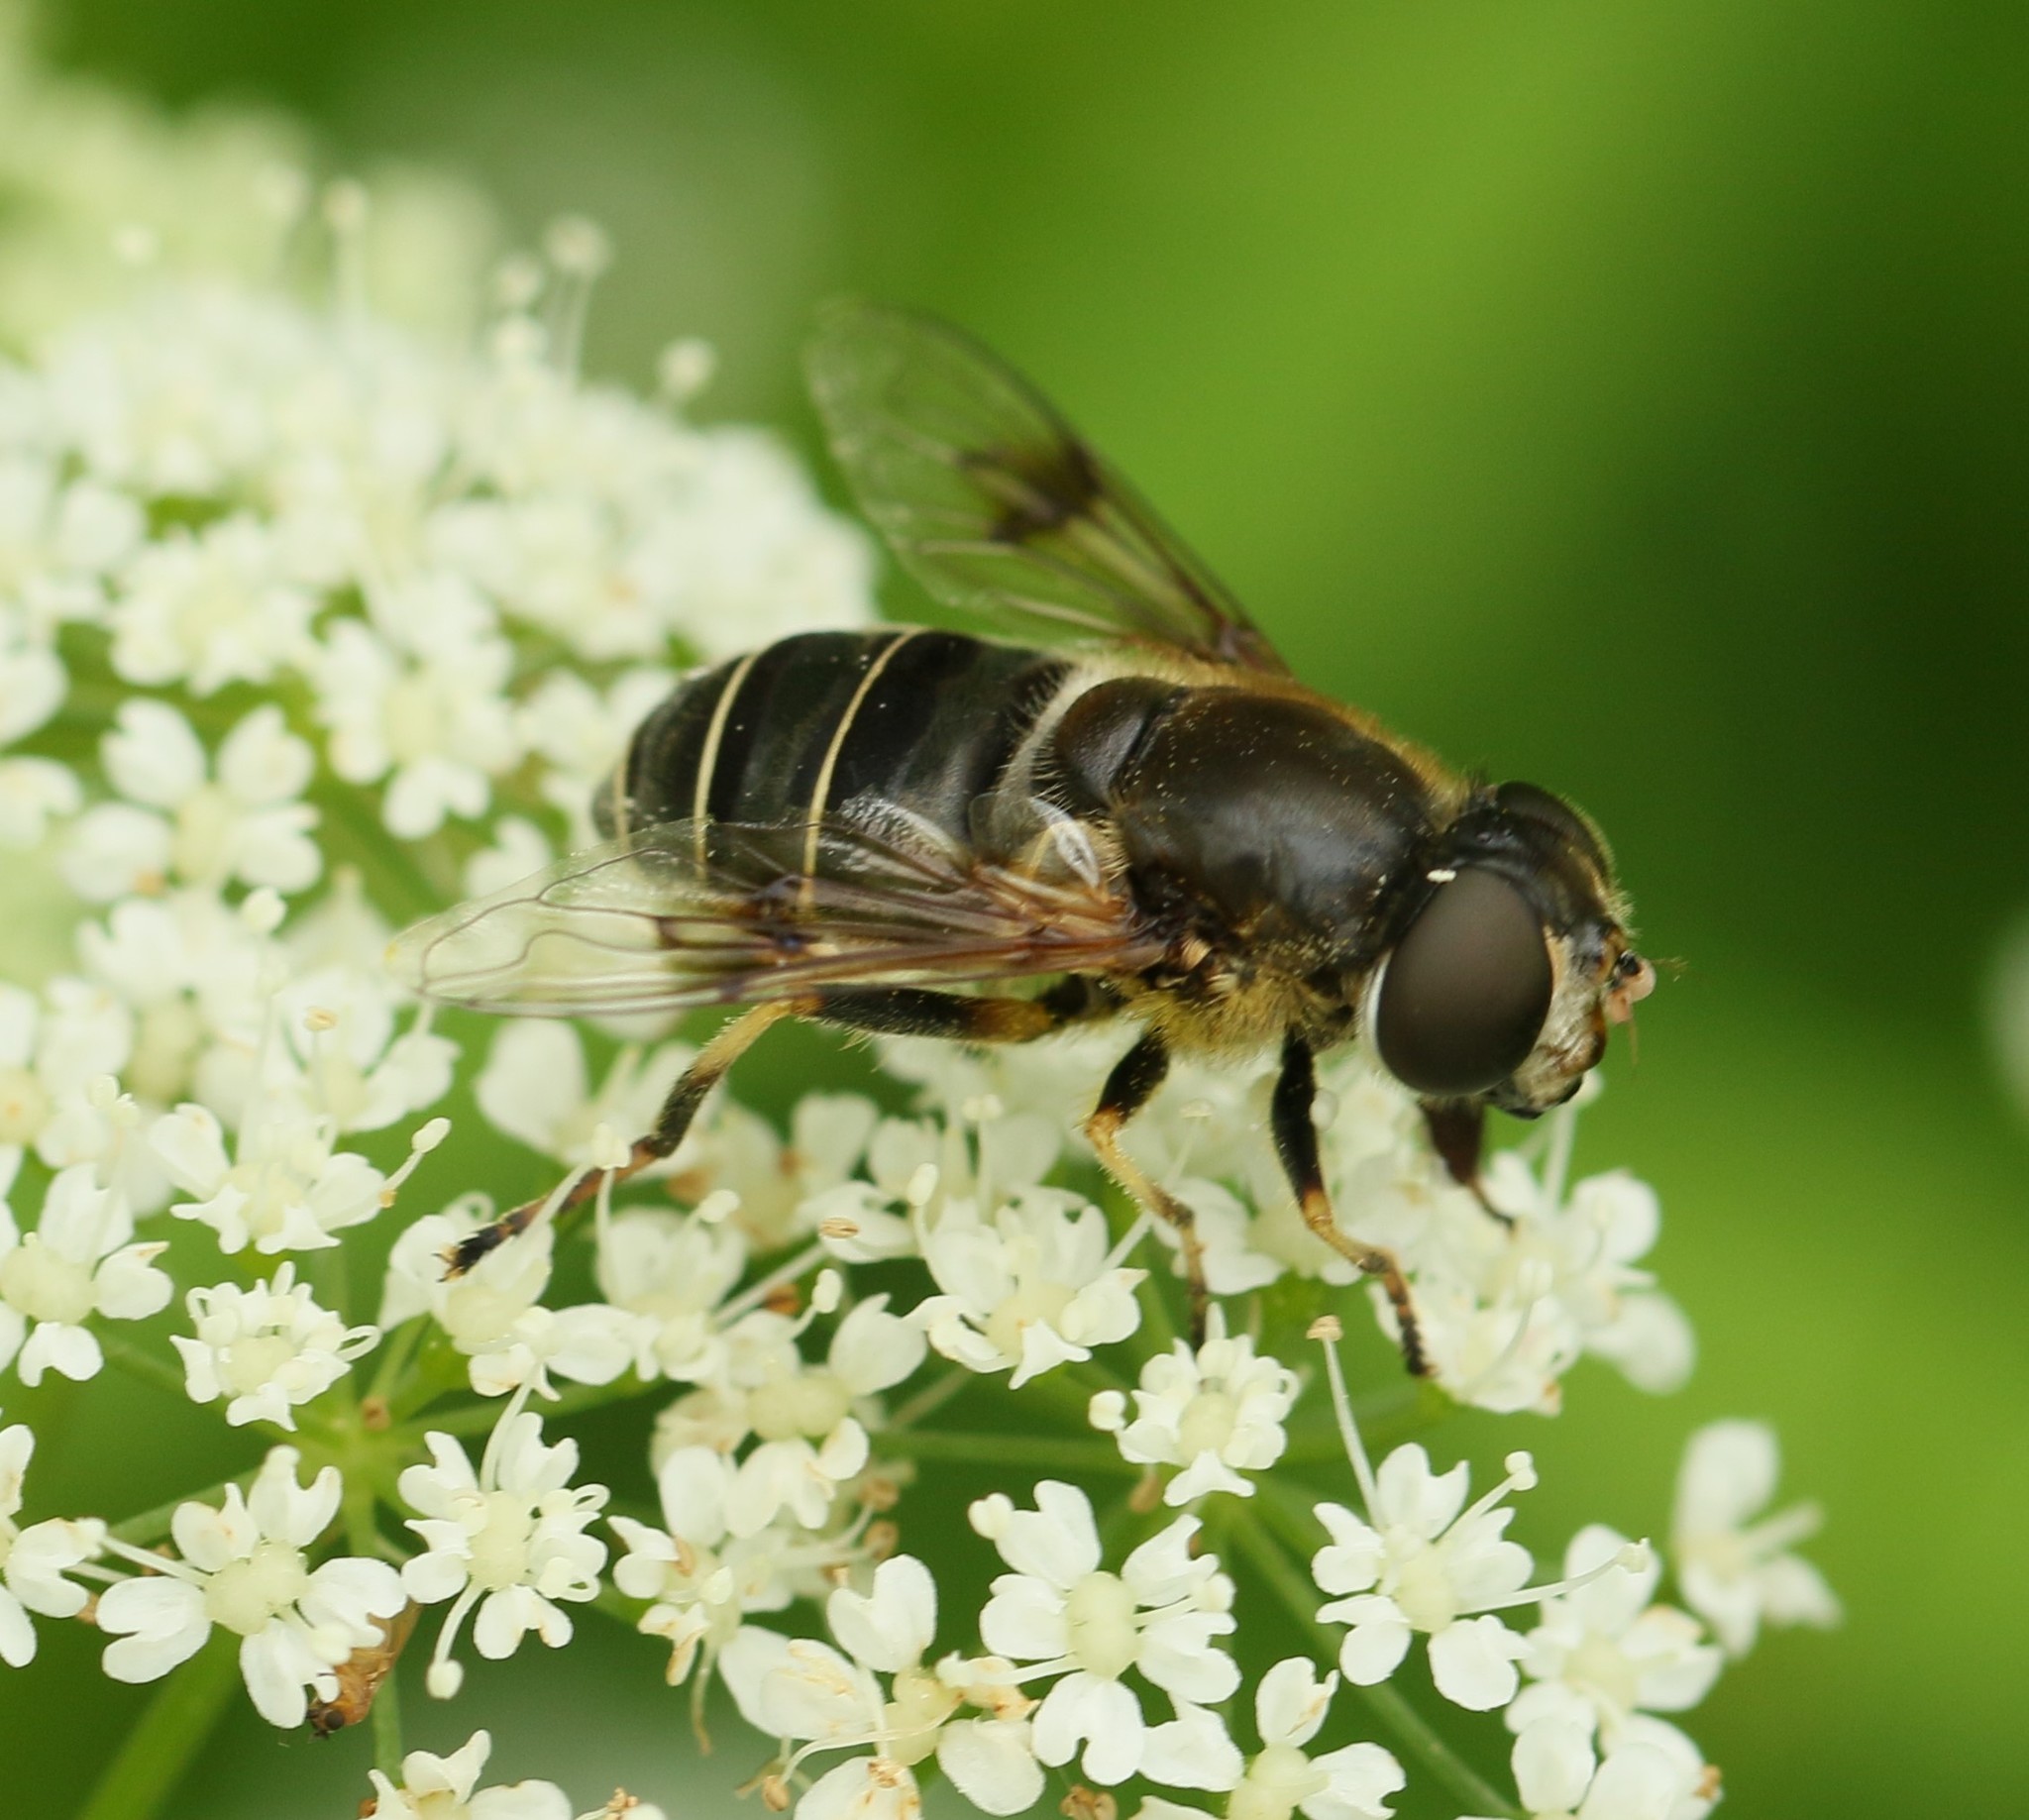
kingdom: Animalia
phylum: Arthropoda
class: Insecta
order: Diptera
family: Syrphidae
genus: Eristalis
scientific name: Eristalis obscura
